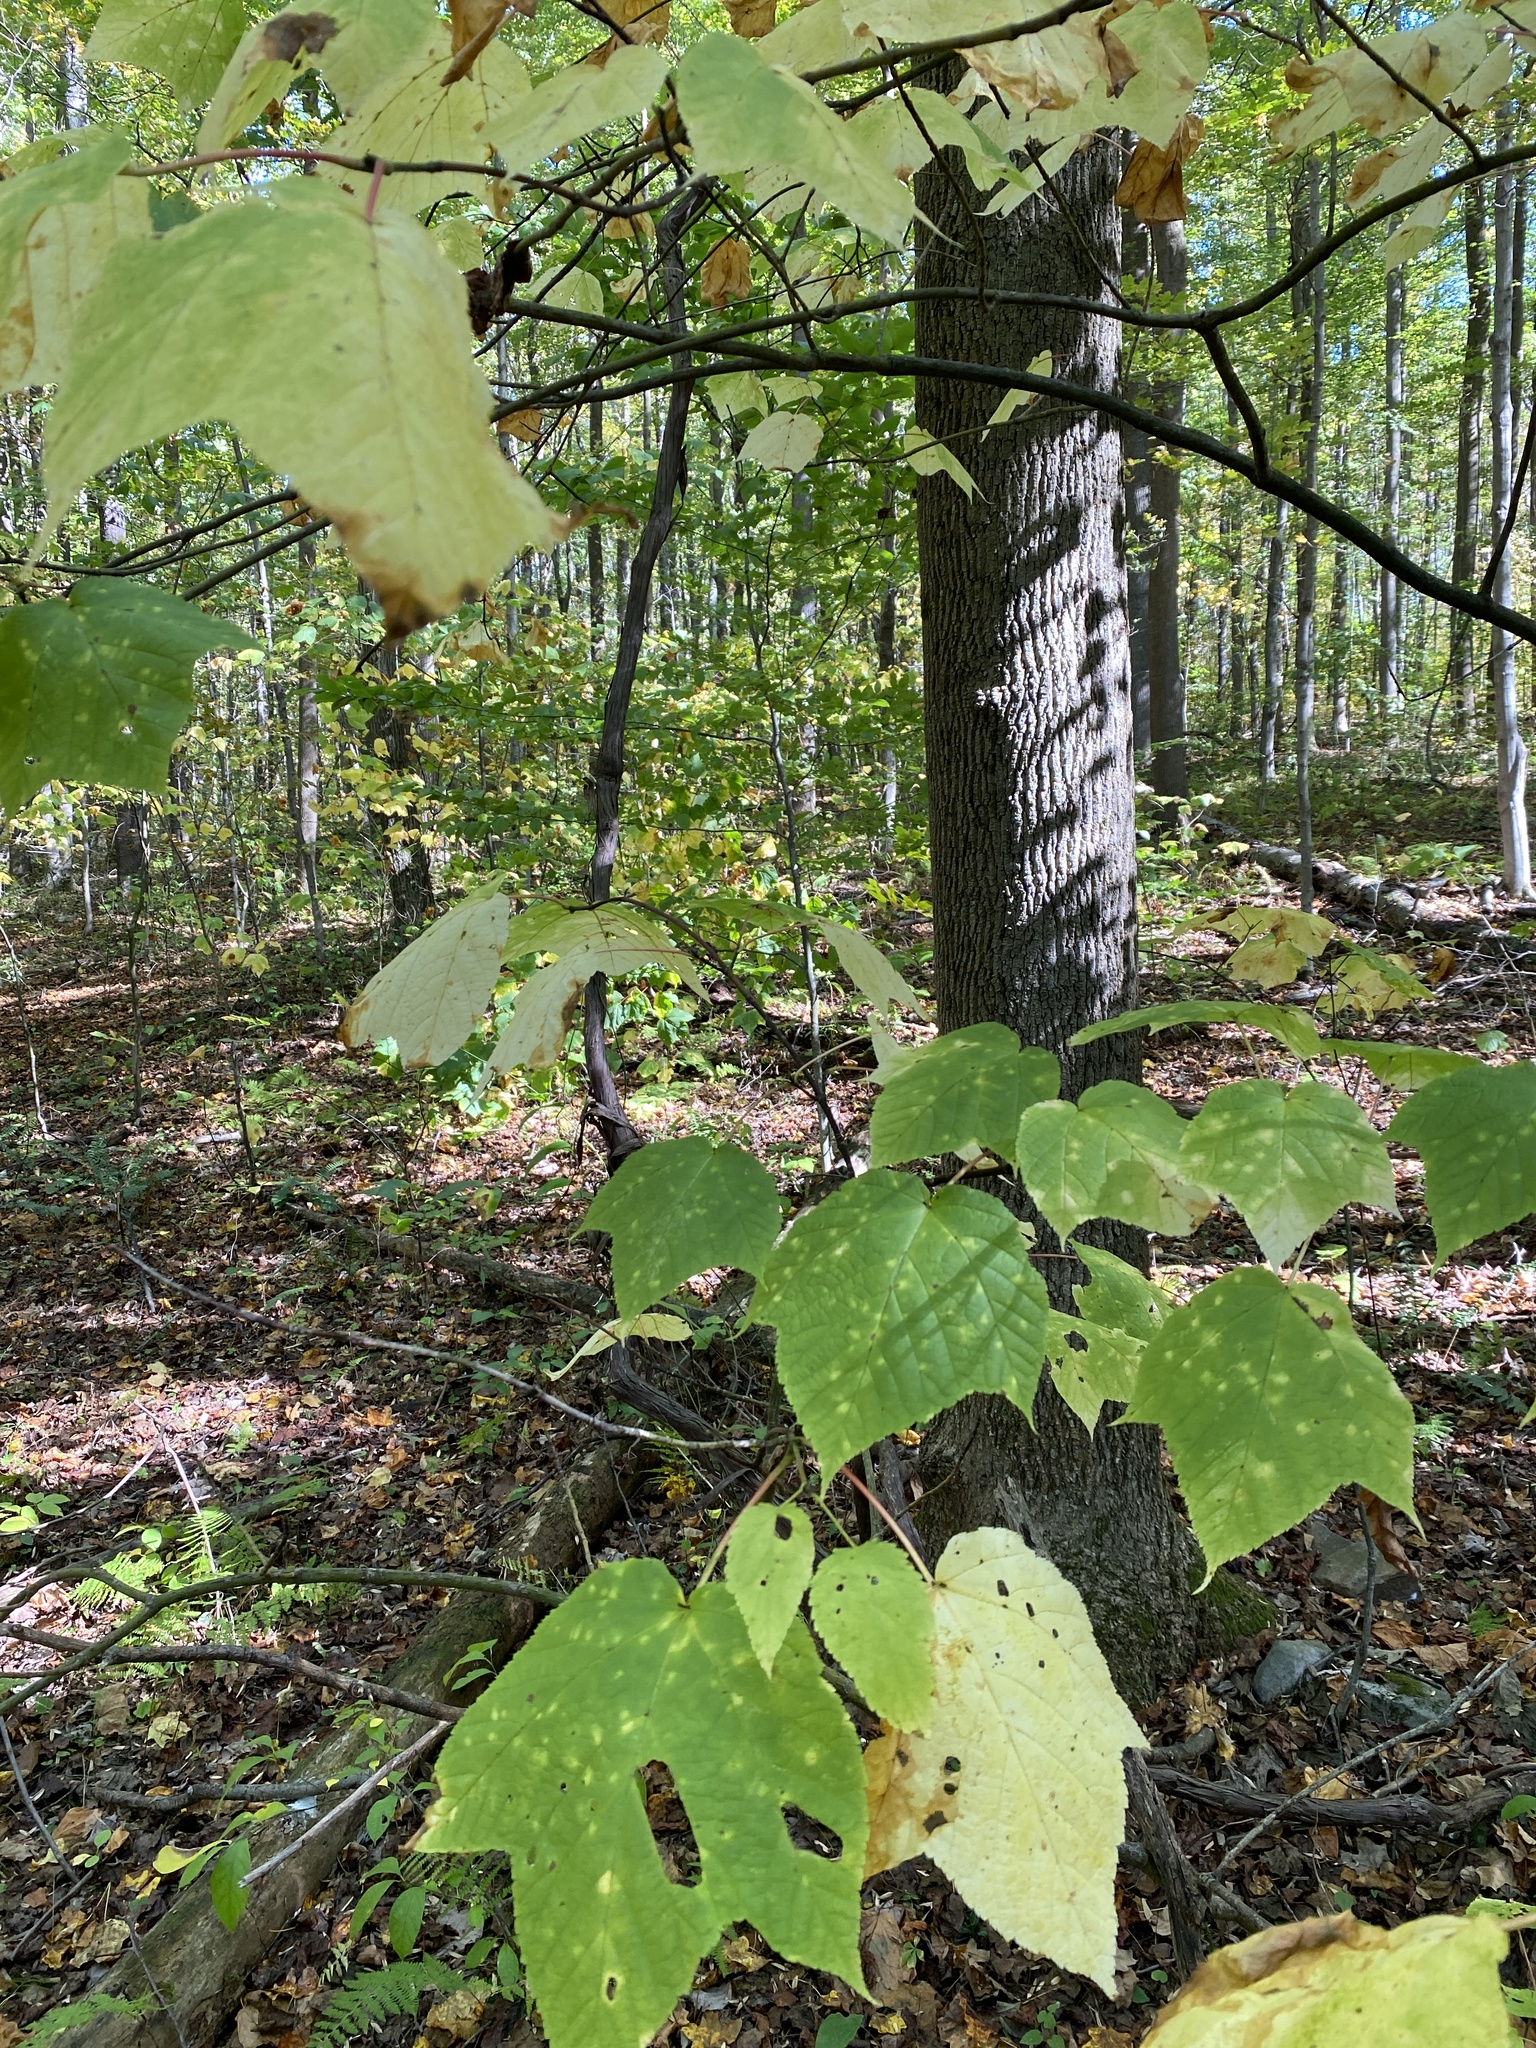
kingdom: Plantae
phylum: Tracheophyta
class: Magnoliopsida
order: Sapindales
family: Sapindaceae
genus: Acer
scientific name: Acer pensylvanicum
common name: Moosewood
